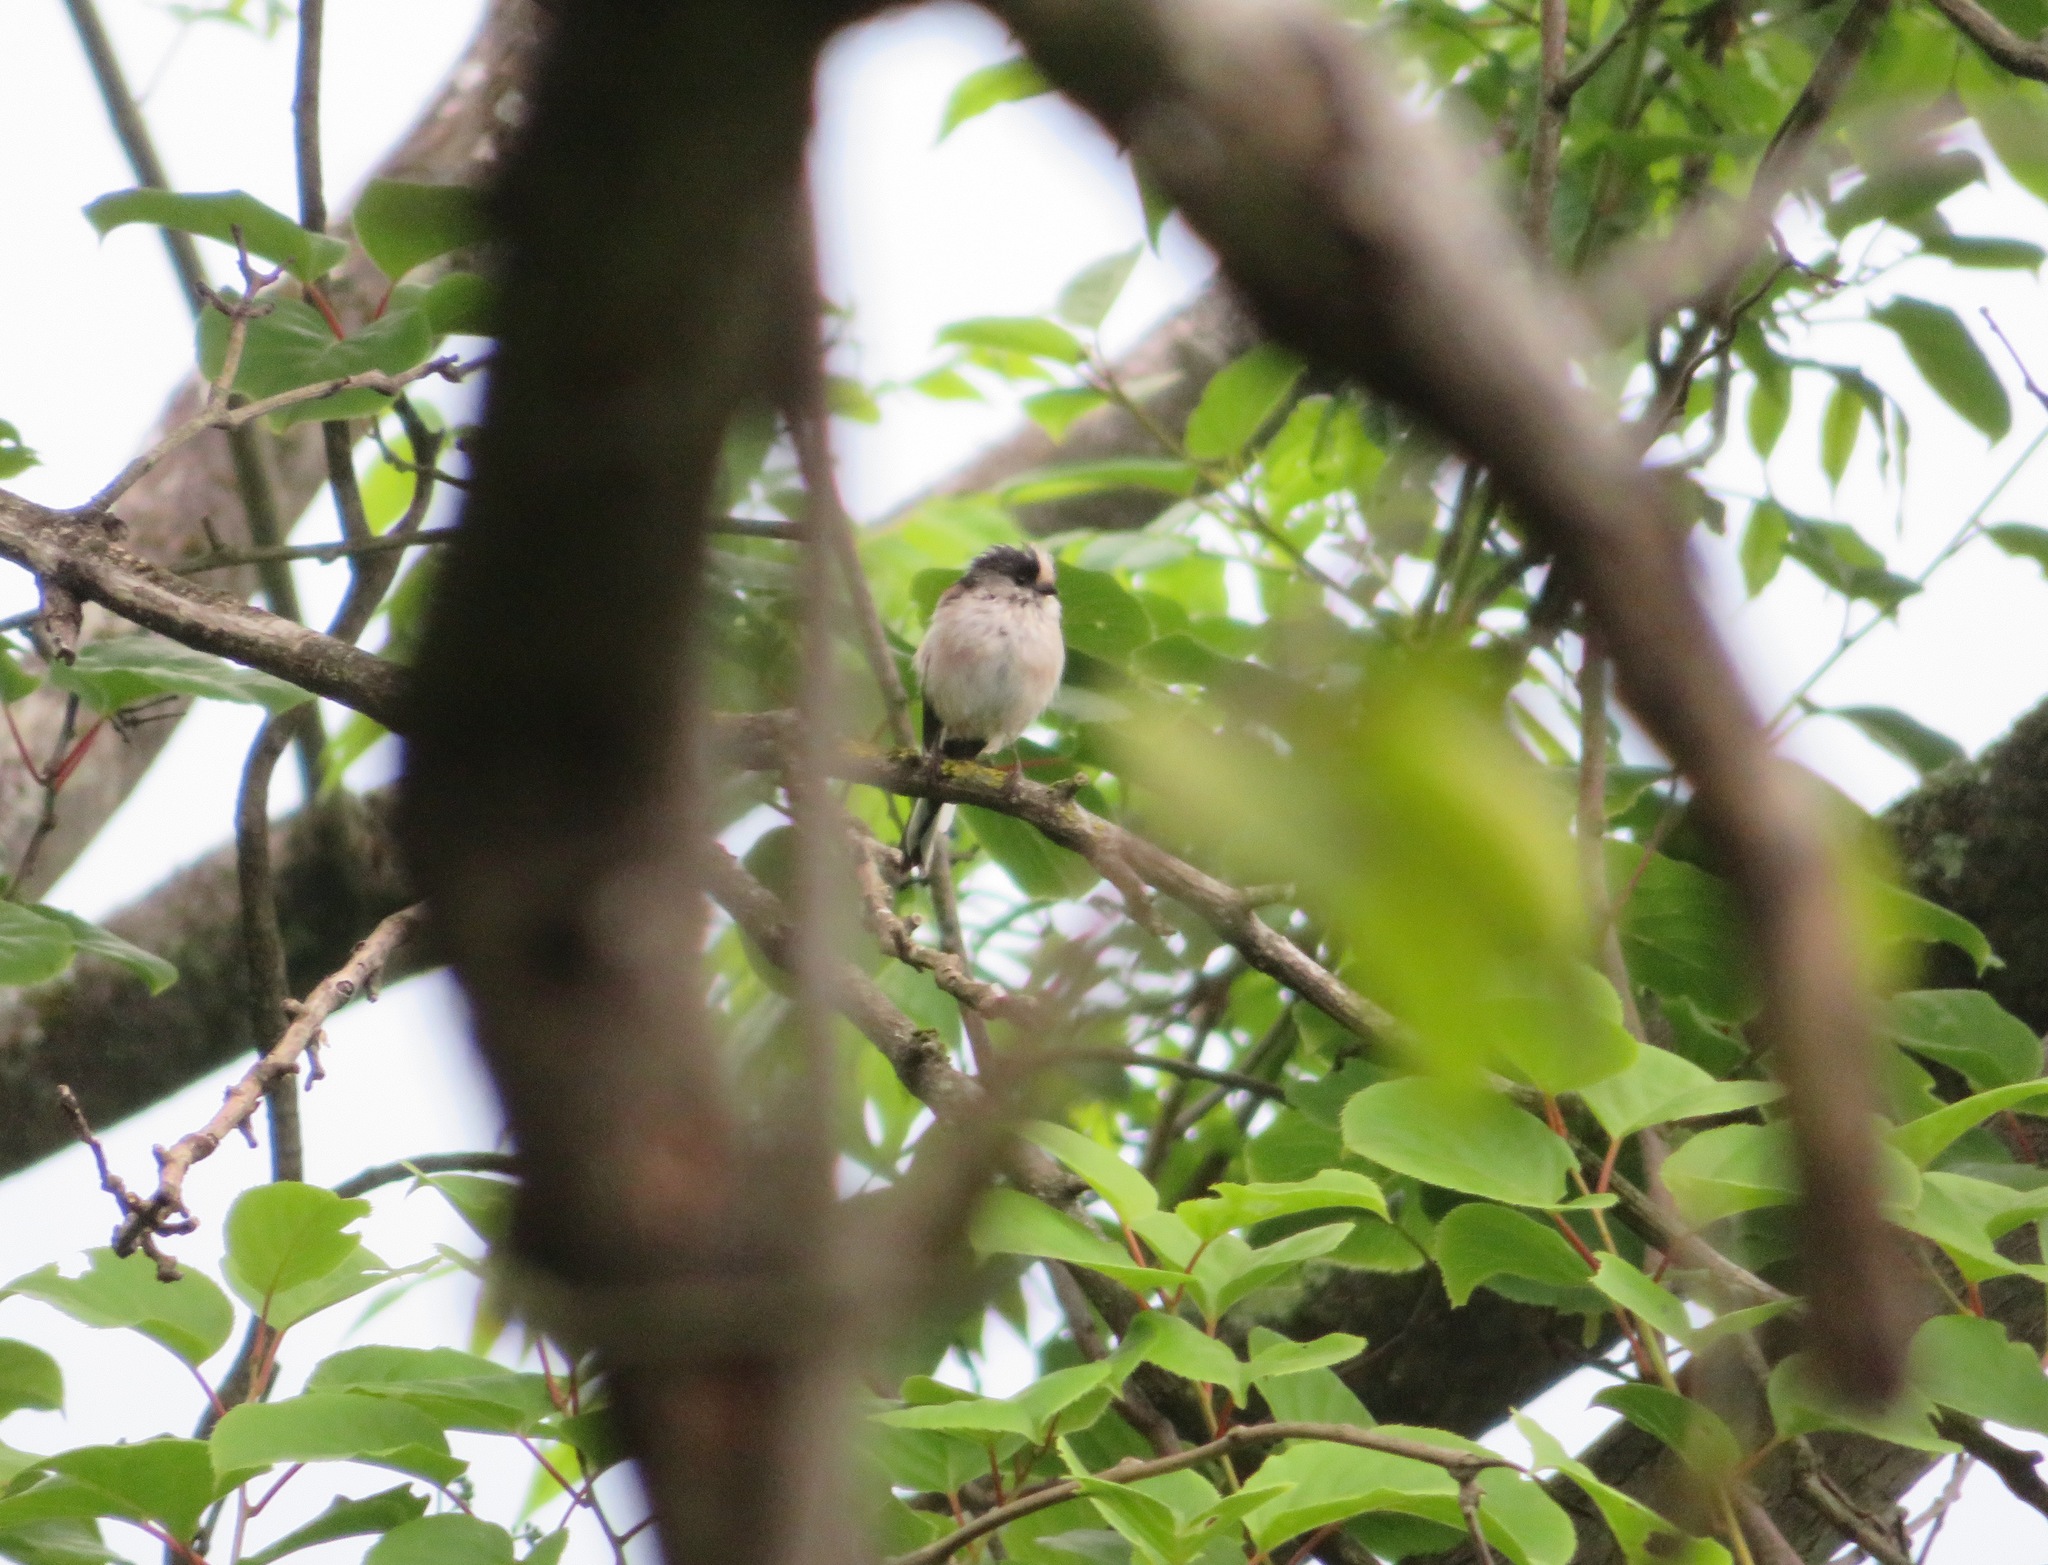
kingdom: Animalia
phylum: Chordata
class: Aves
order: Passeriformes
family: Aegithalidae
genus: Aegithalos
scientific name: Aegithalos caudatus
